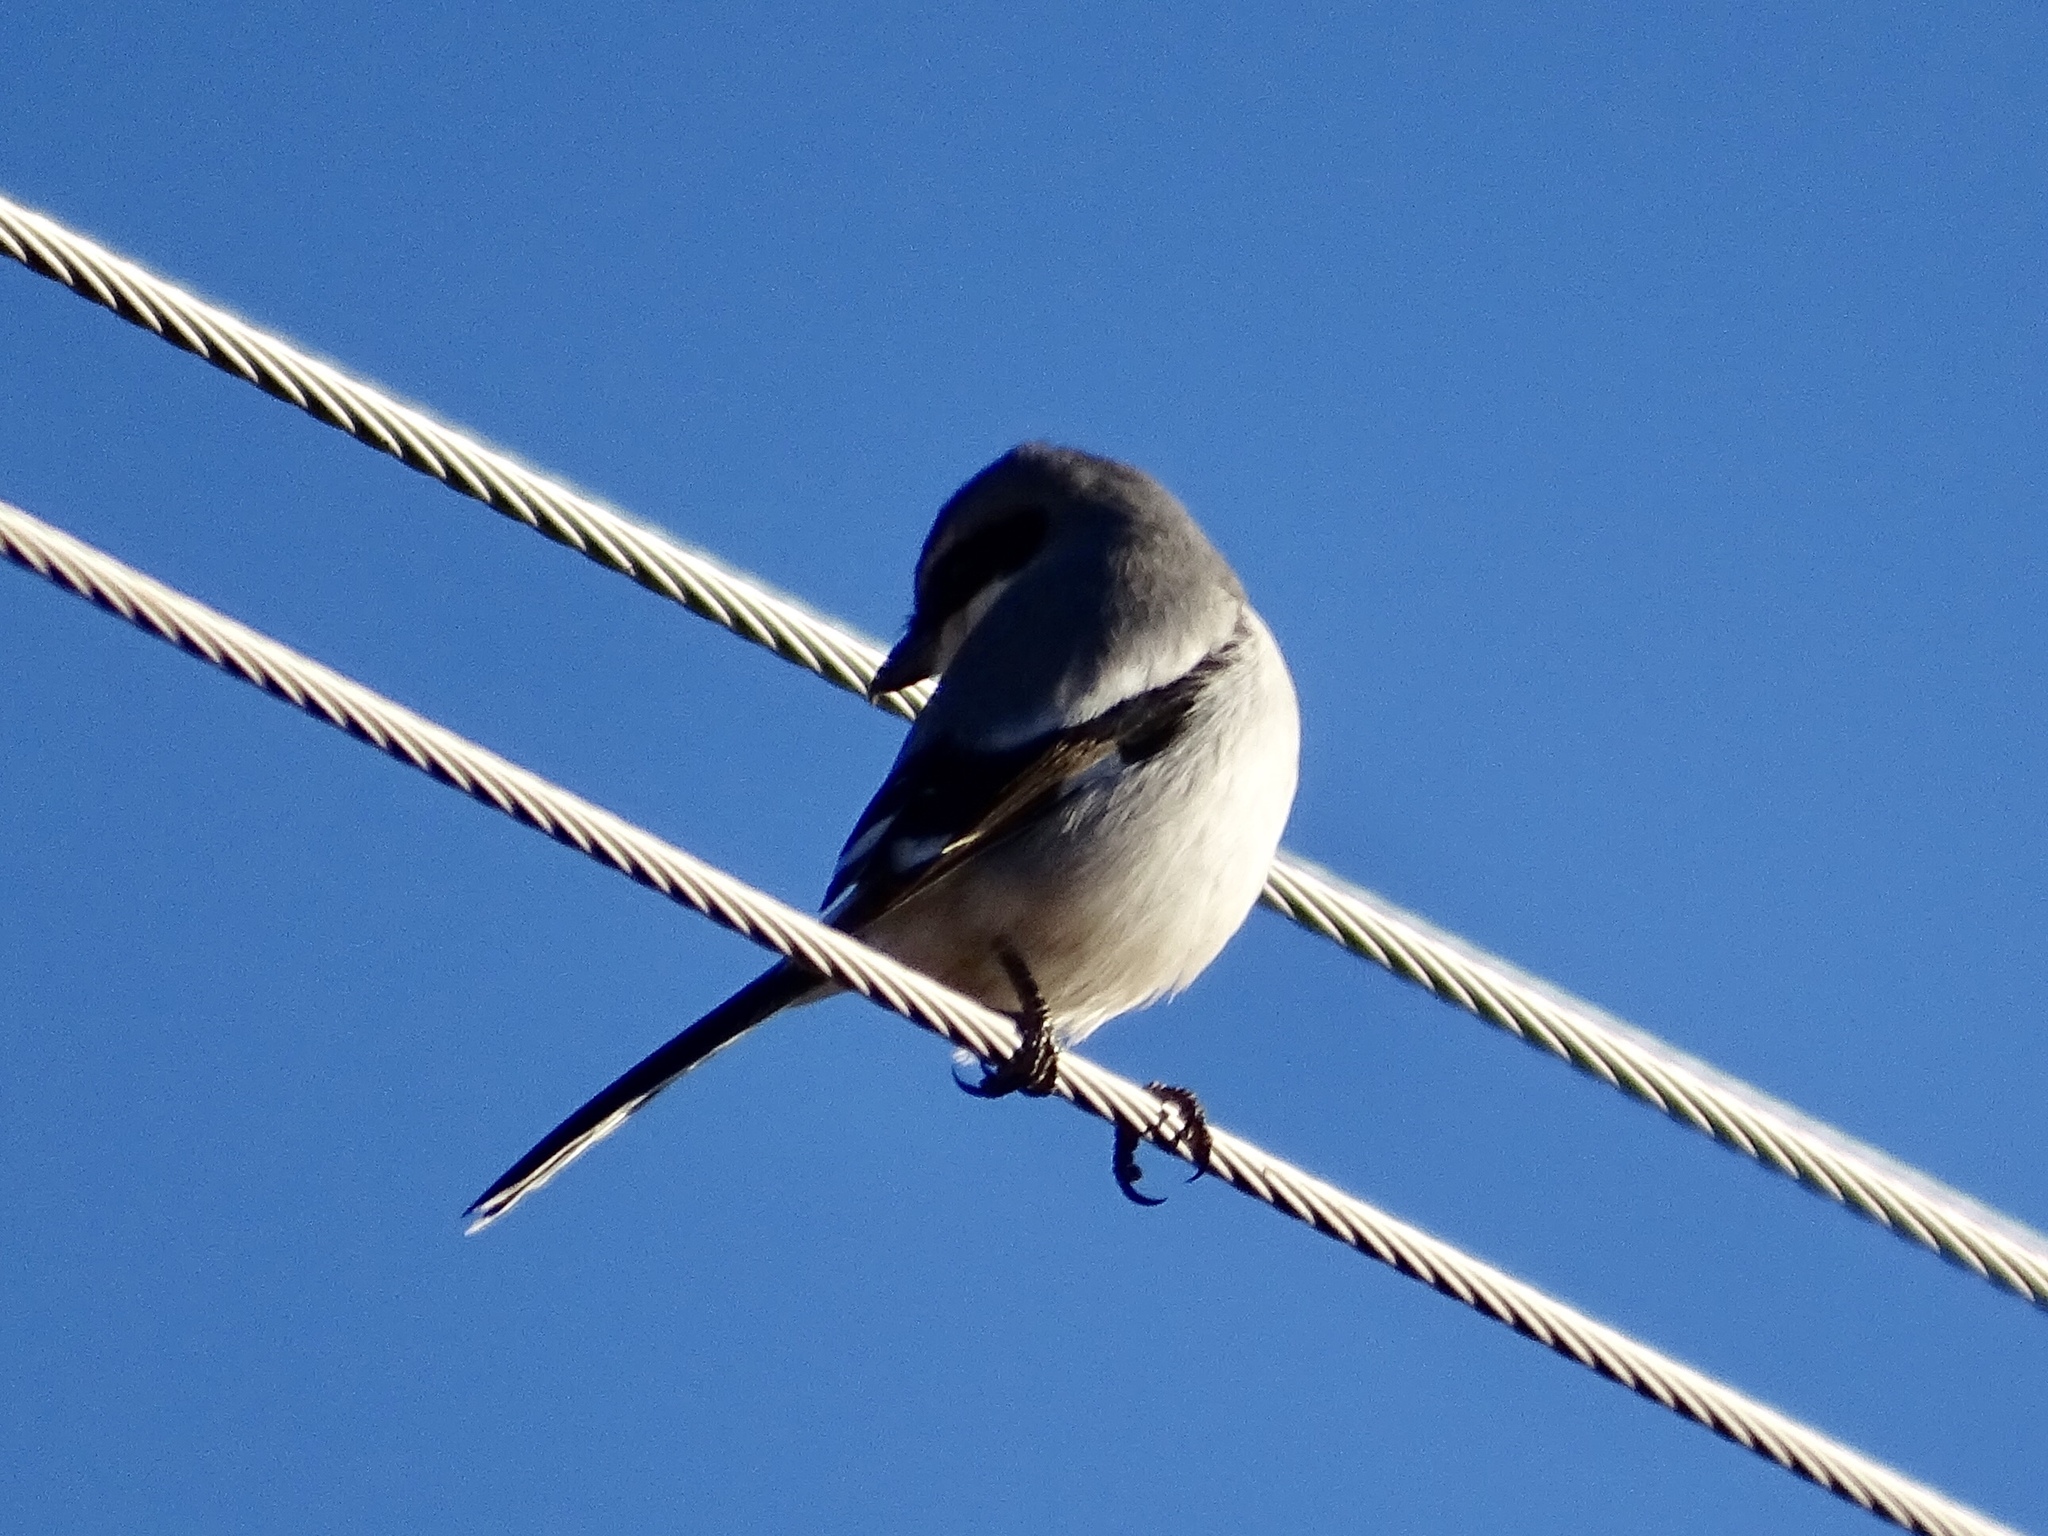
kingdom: Animalia
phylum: Chordata
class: Aves
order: Passeriformes
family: Laniidae
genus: Lanius
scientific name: Lanius ludovicianus
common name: Loggerhead shrike
